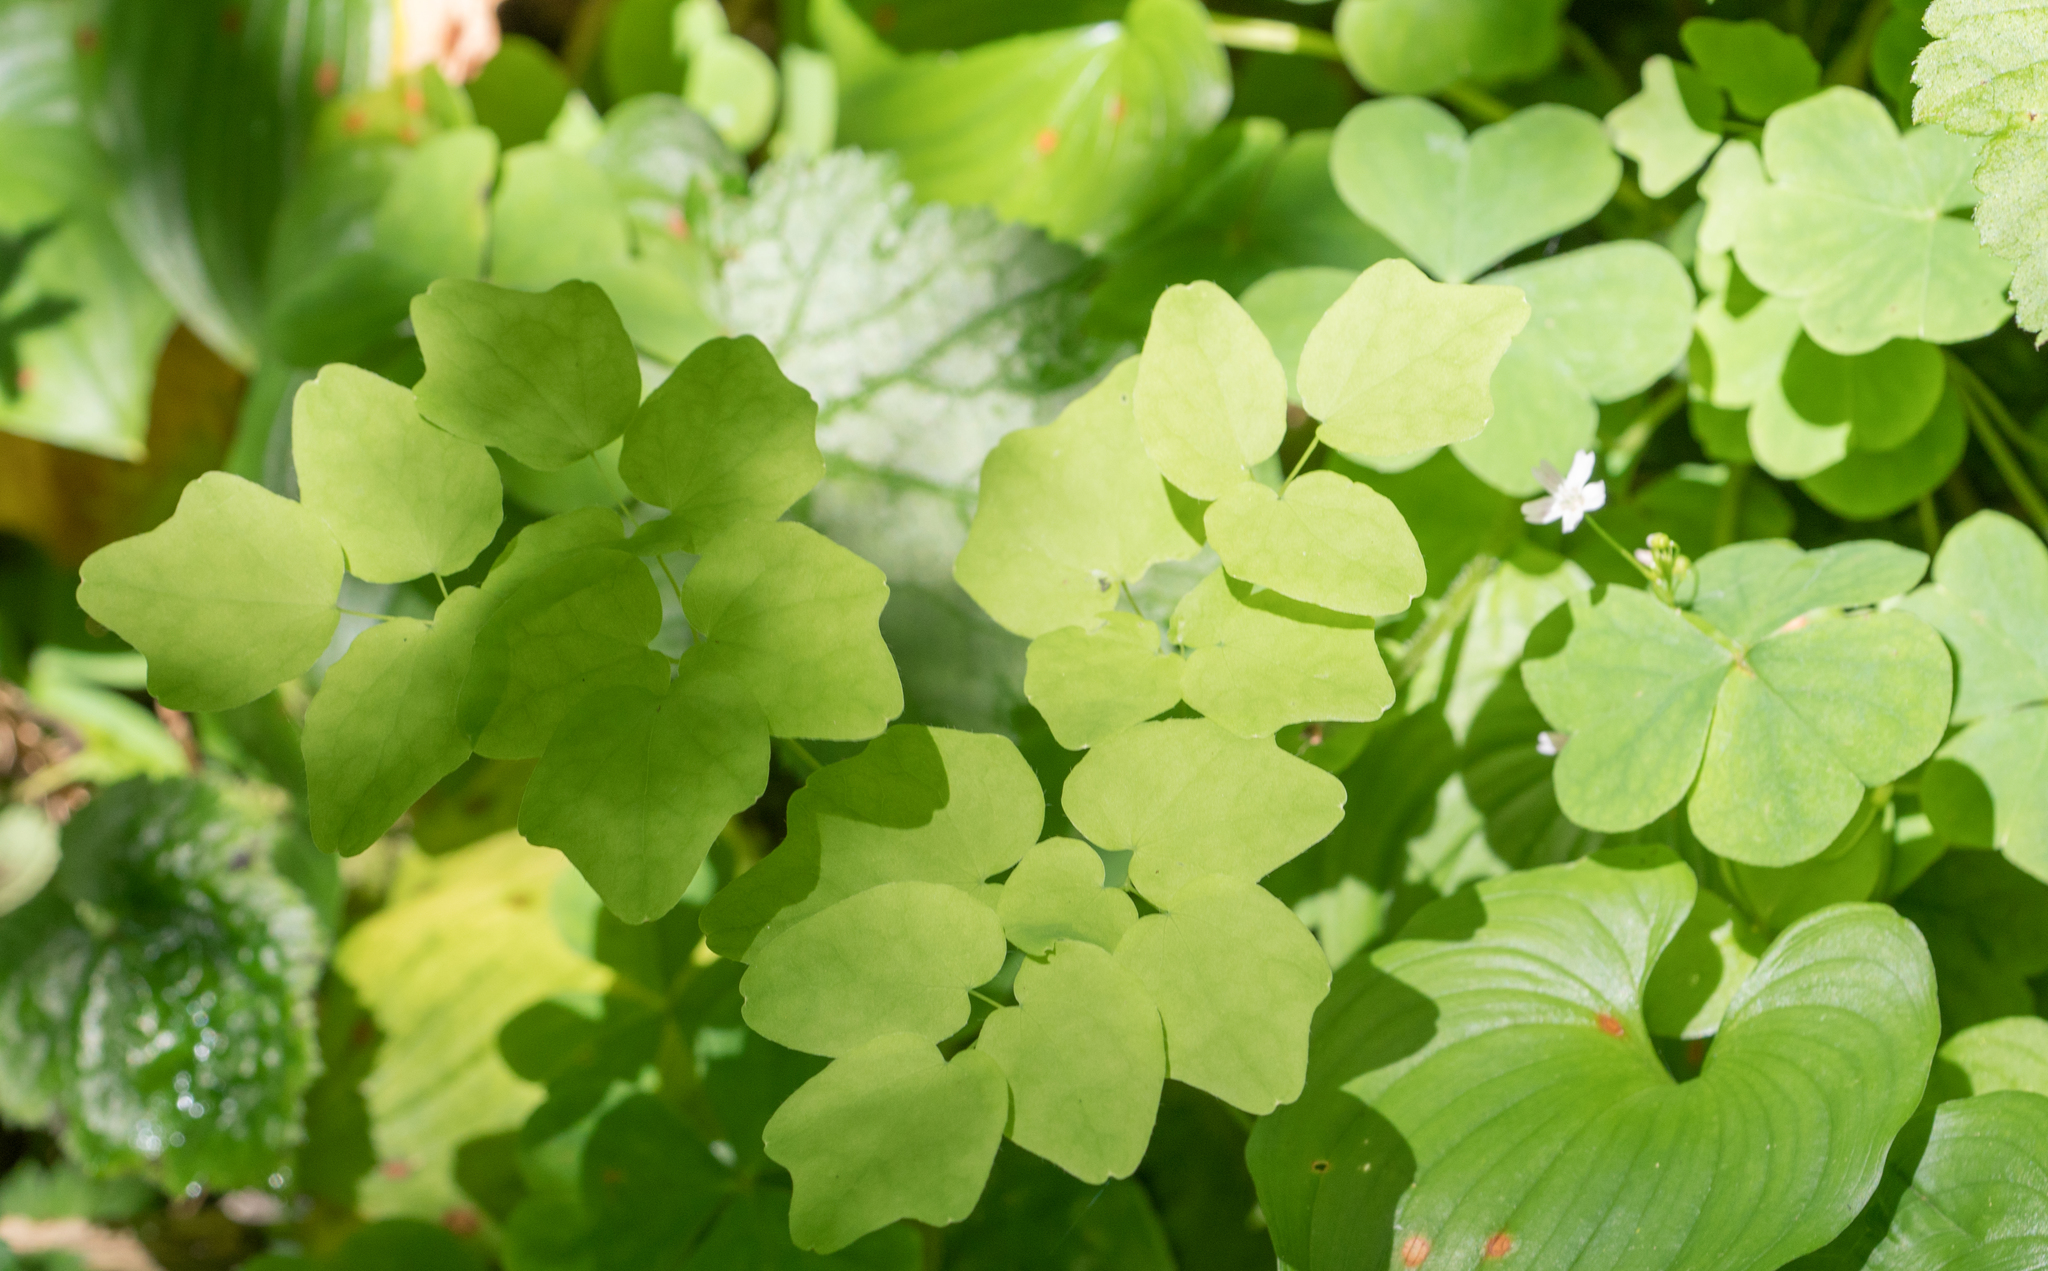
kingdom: Plantae
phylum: Tracheophyta
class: Magnoliopsida
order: Ranunculales
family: Berberidaceae
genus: Vancouveria
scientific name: Vancouveria hexandra
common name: Northern inside-out-flower
